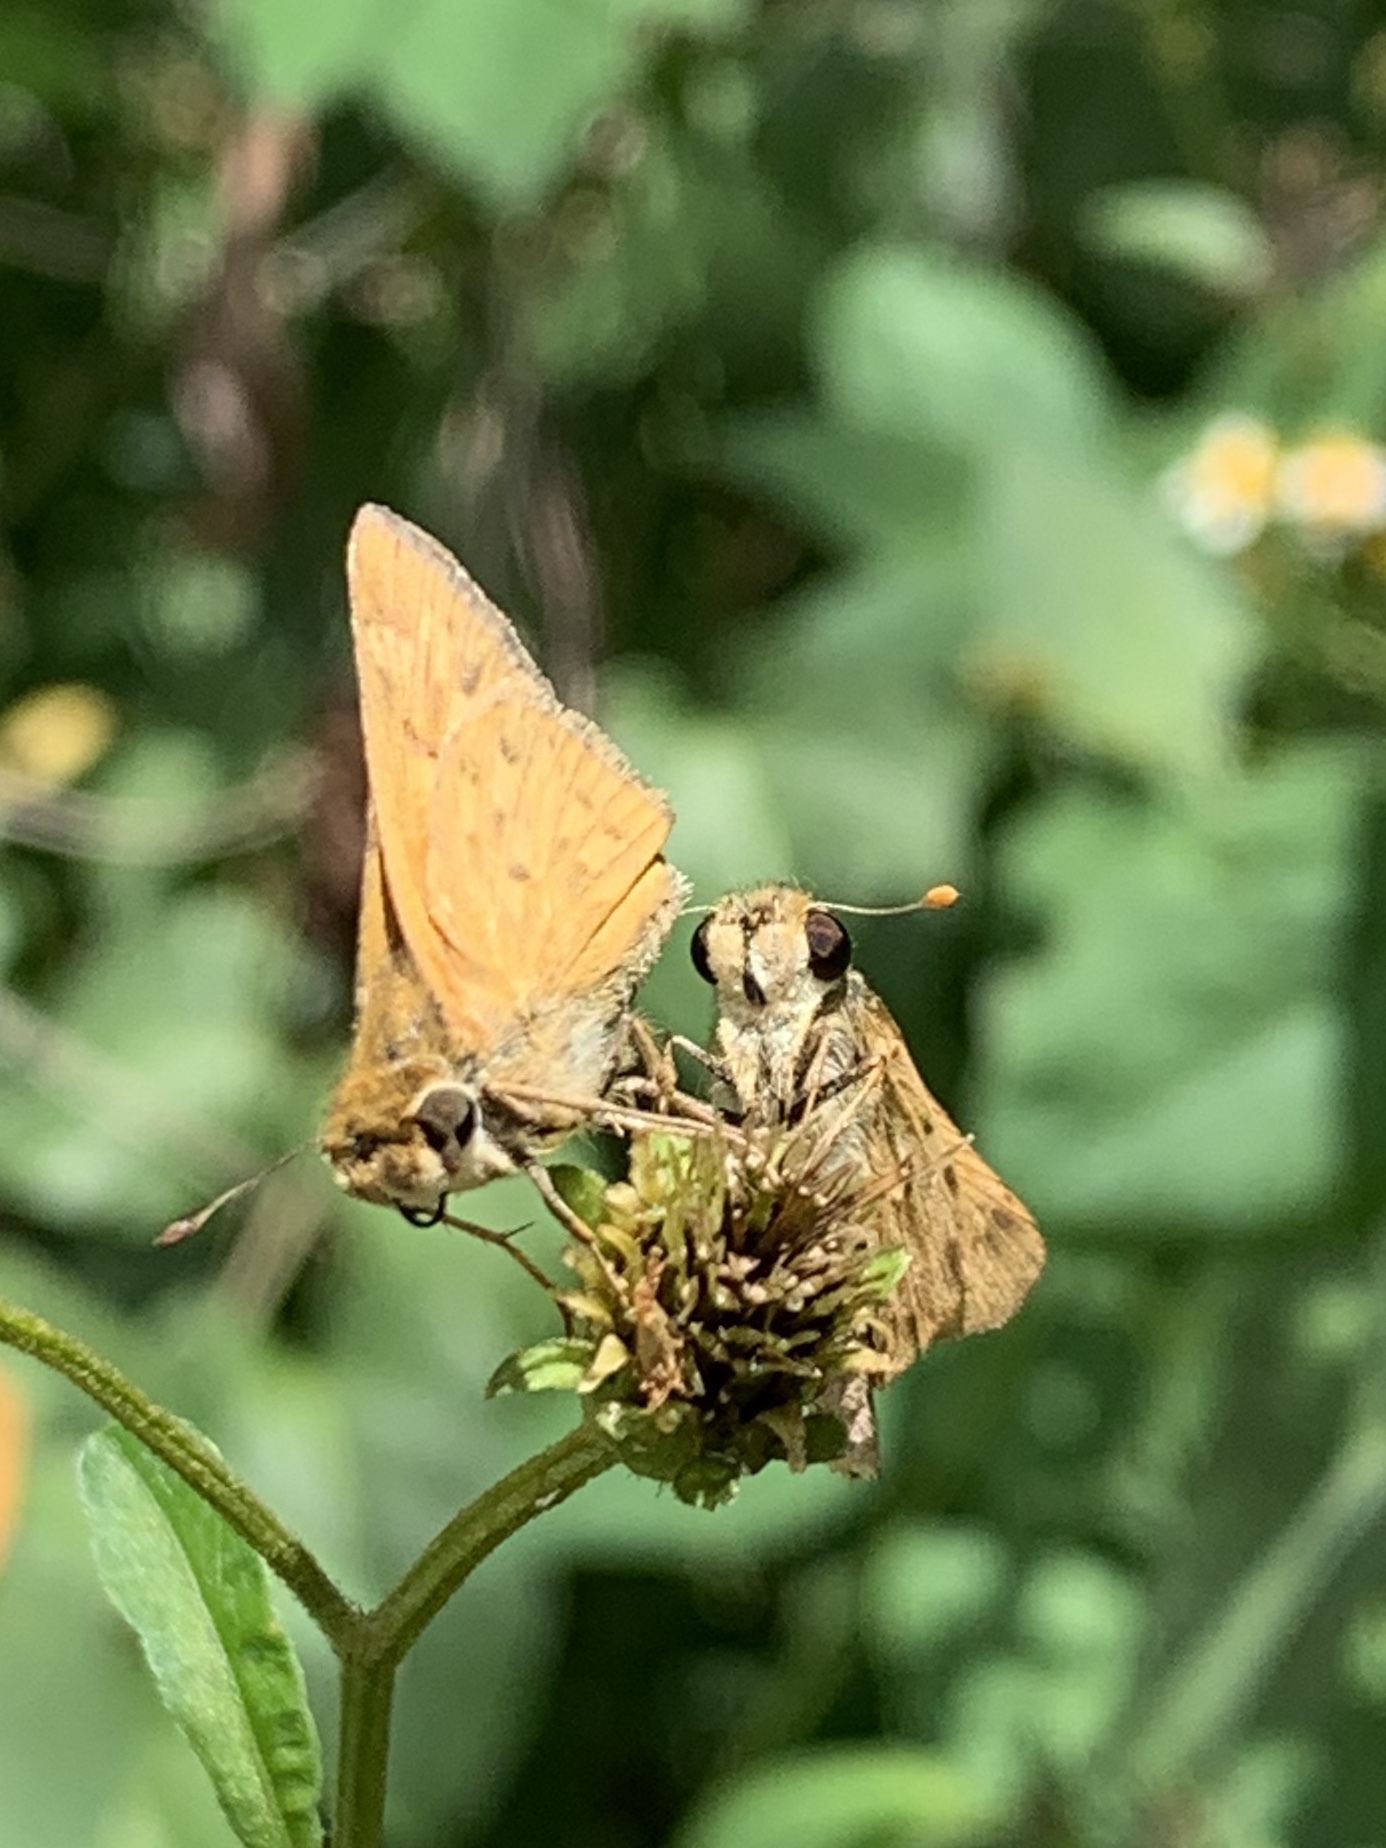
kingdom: Animalia
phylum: Arthropoda
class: Insecta
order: Lepidoptera
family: Hesperiidae
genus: Hylephila
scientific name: Hylephila phyleus
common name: Fiery skipper
